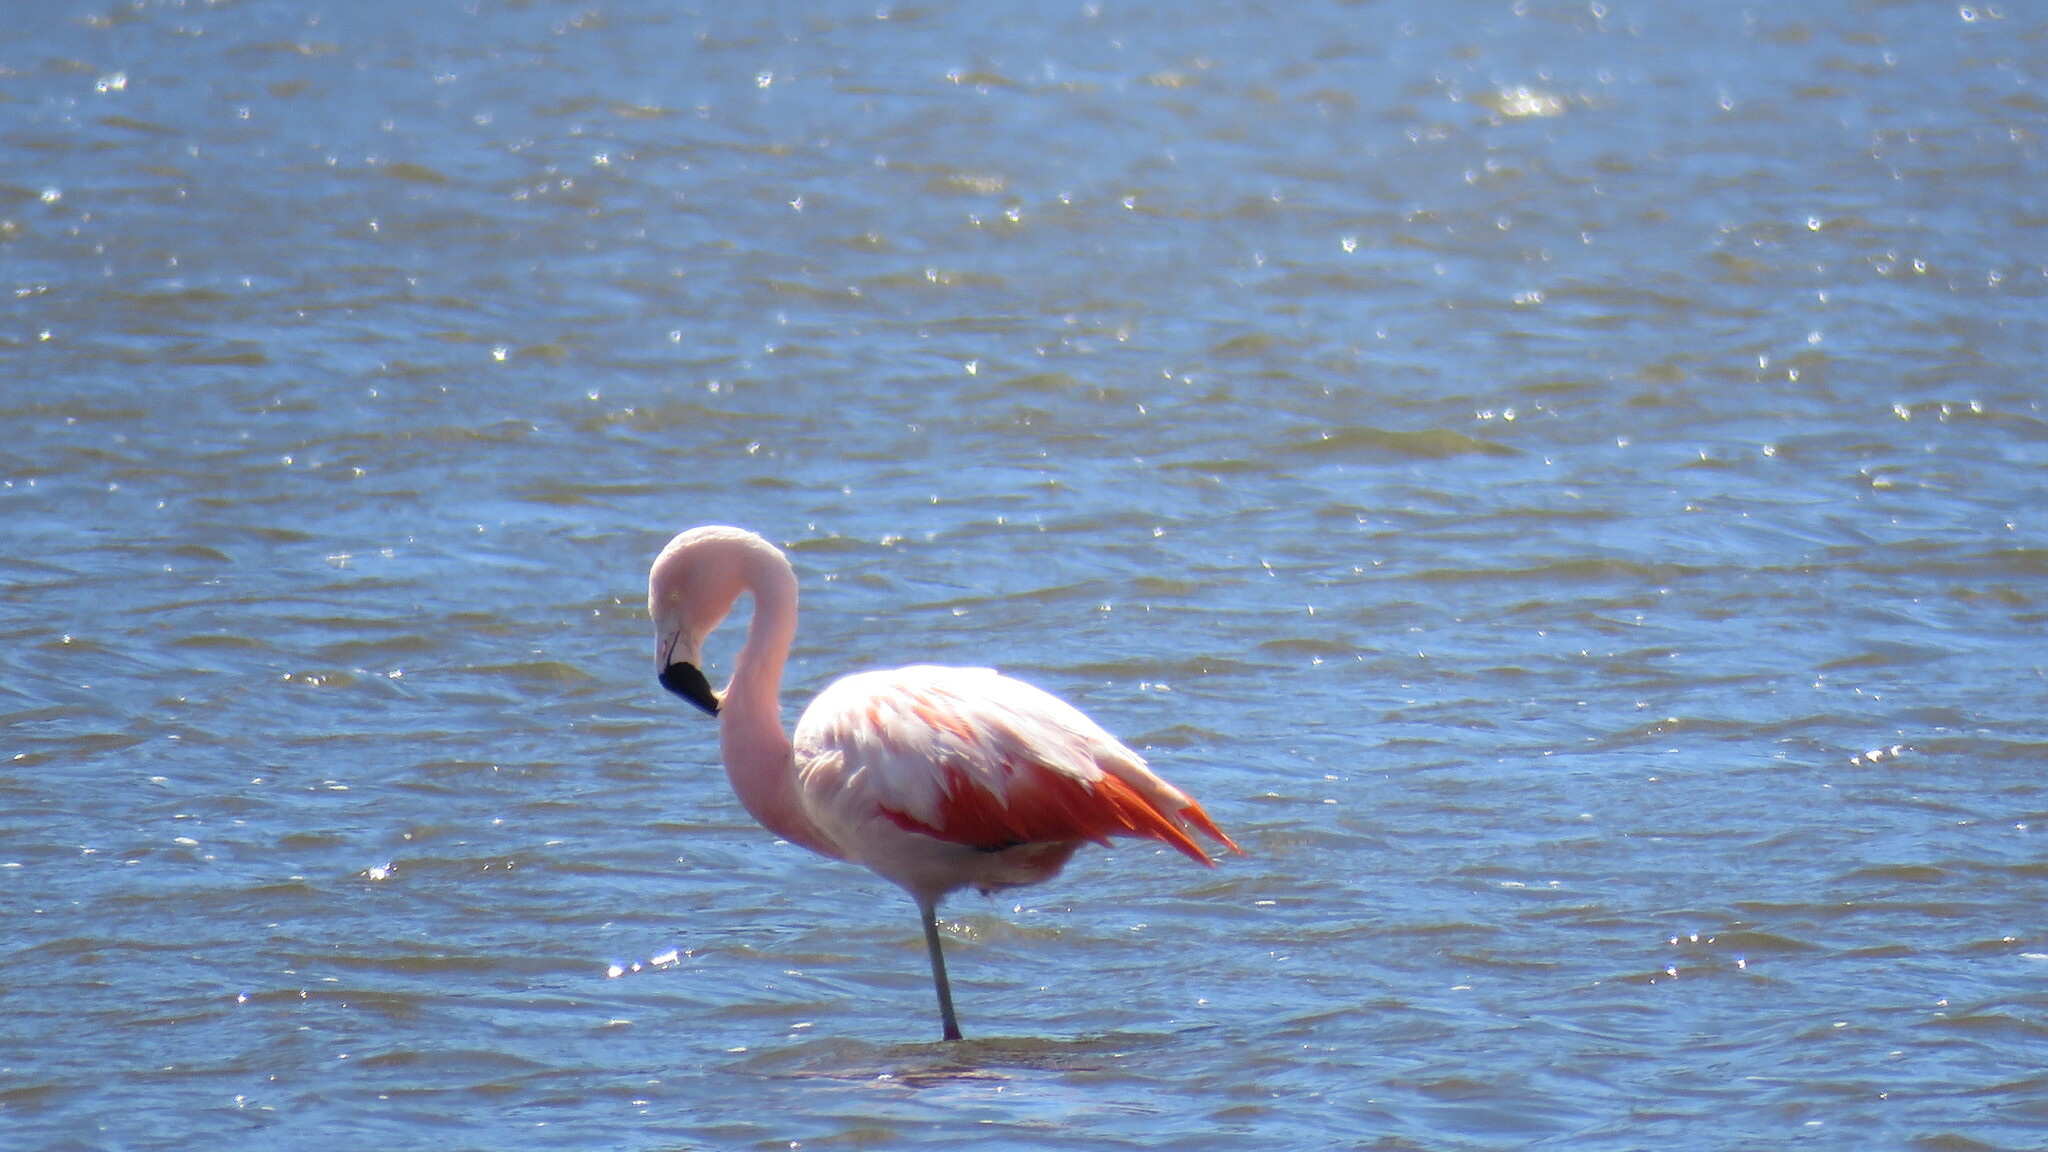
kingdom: Animalia
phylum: Chordata
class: Aves
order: Phoenicopteriformes
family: Phoenicopteridae
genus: Phoenicopterus
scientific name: Phoenicopterus chilensis
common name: Chilean flamingo
